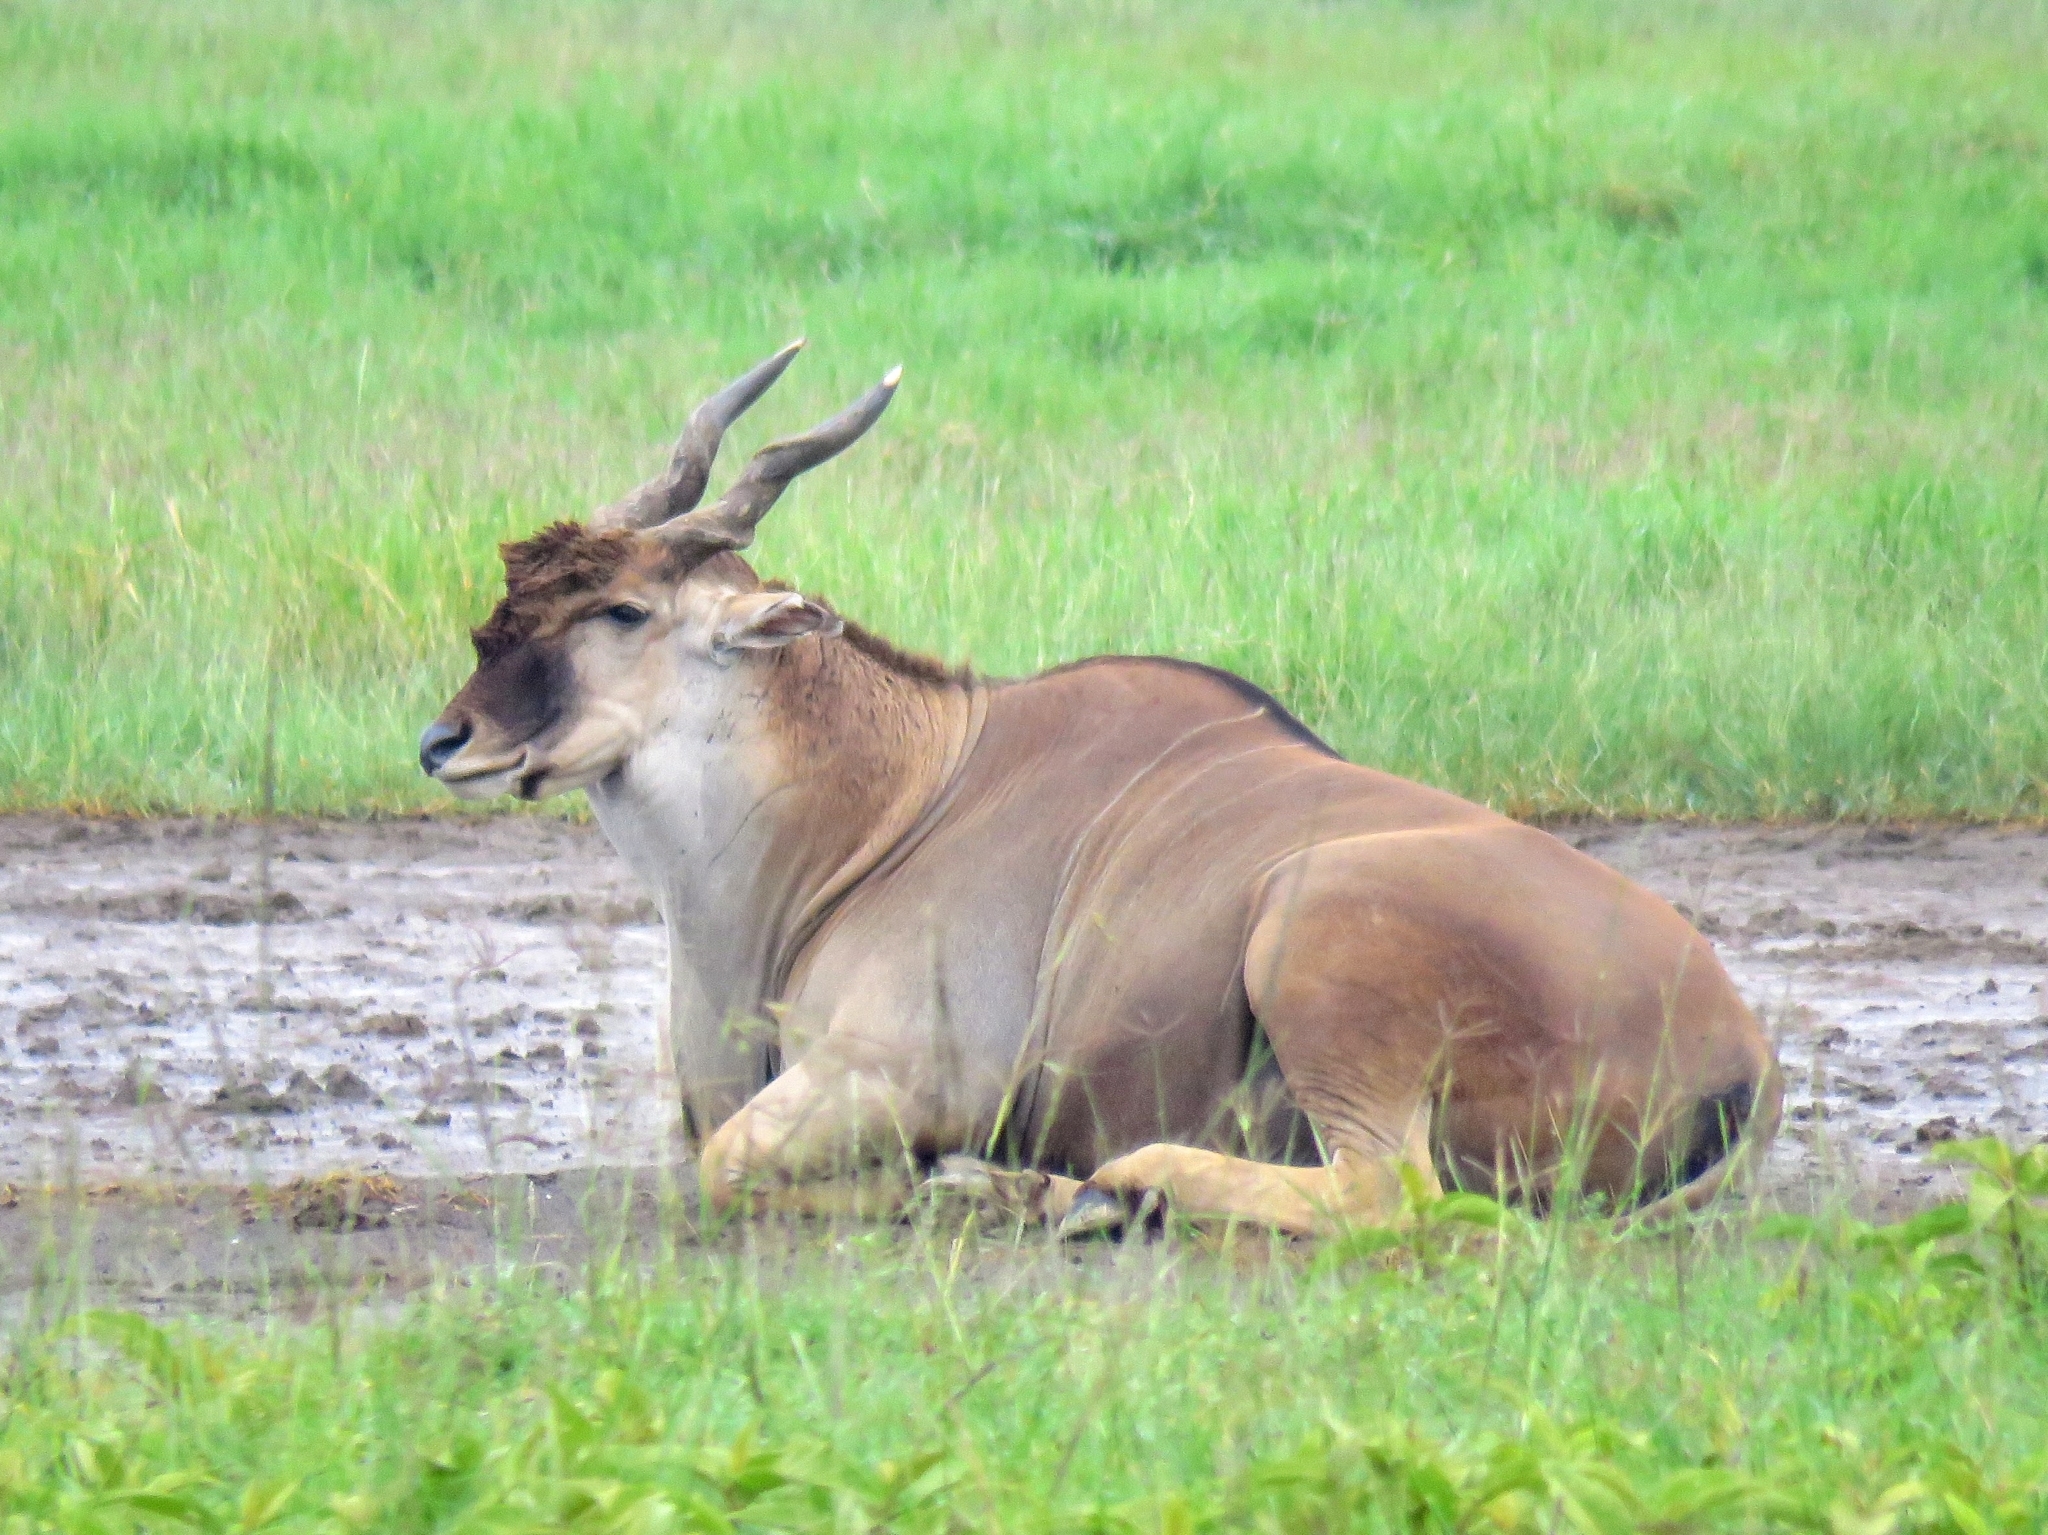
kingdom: Animalia
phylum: Chordata
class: Mammalia
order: Artiodactyla
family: Bovidae
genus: Taurotragus
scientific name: Taurotragus oryx
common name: Common eland
